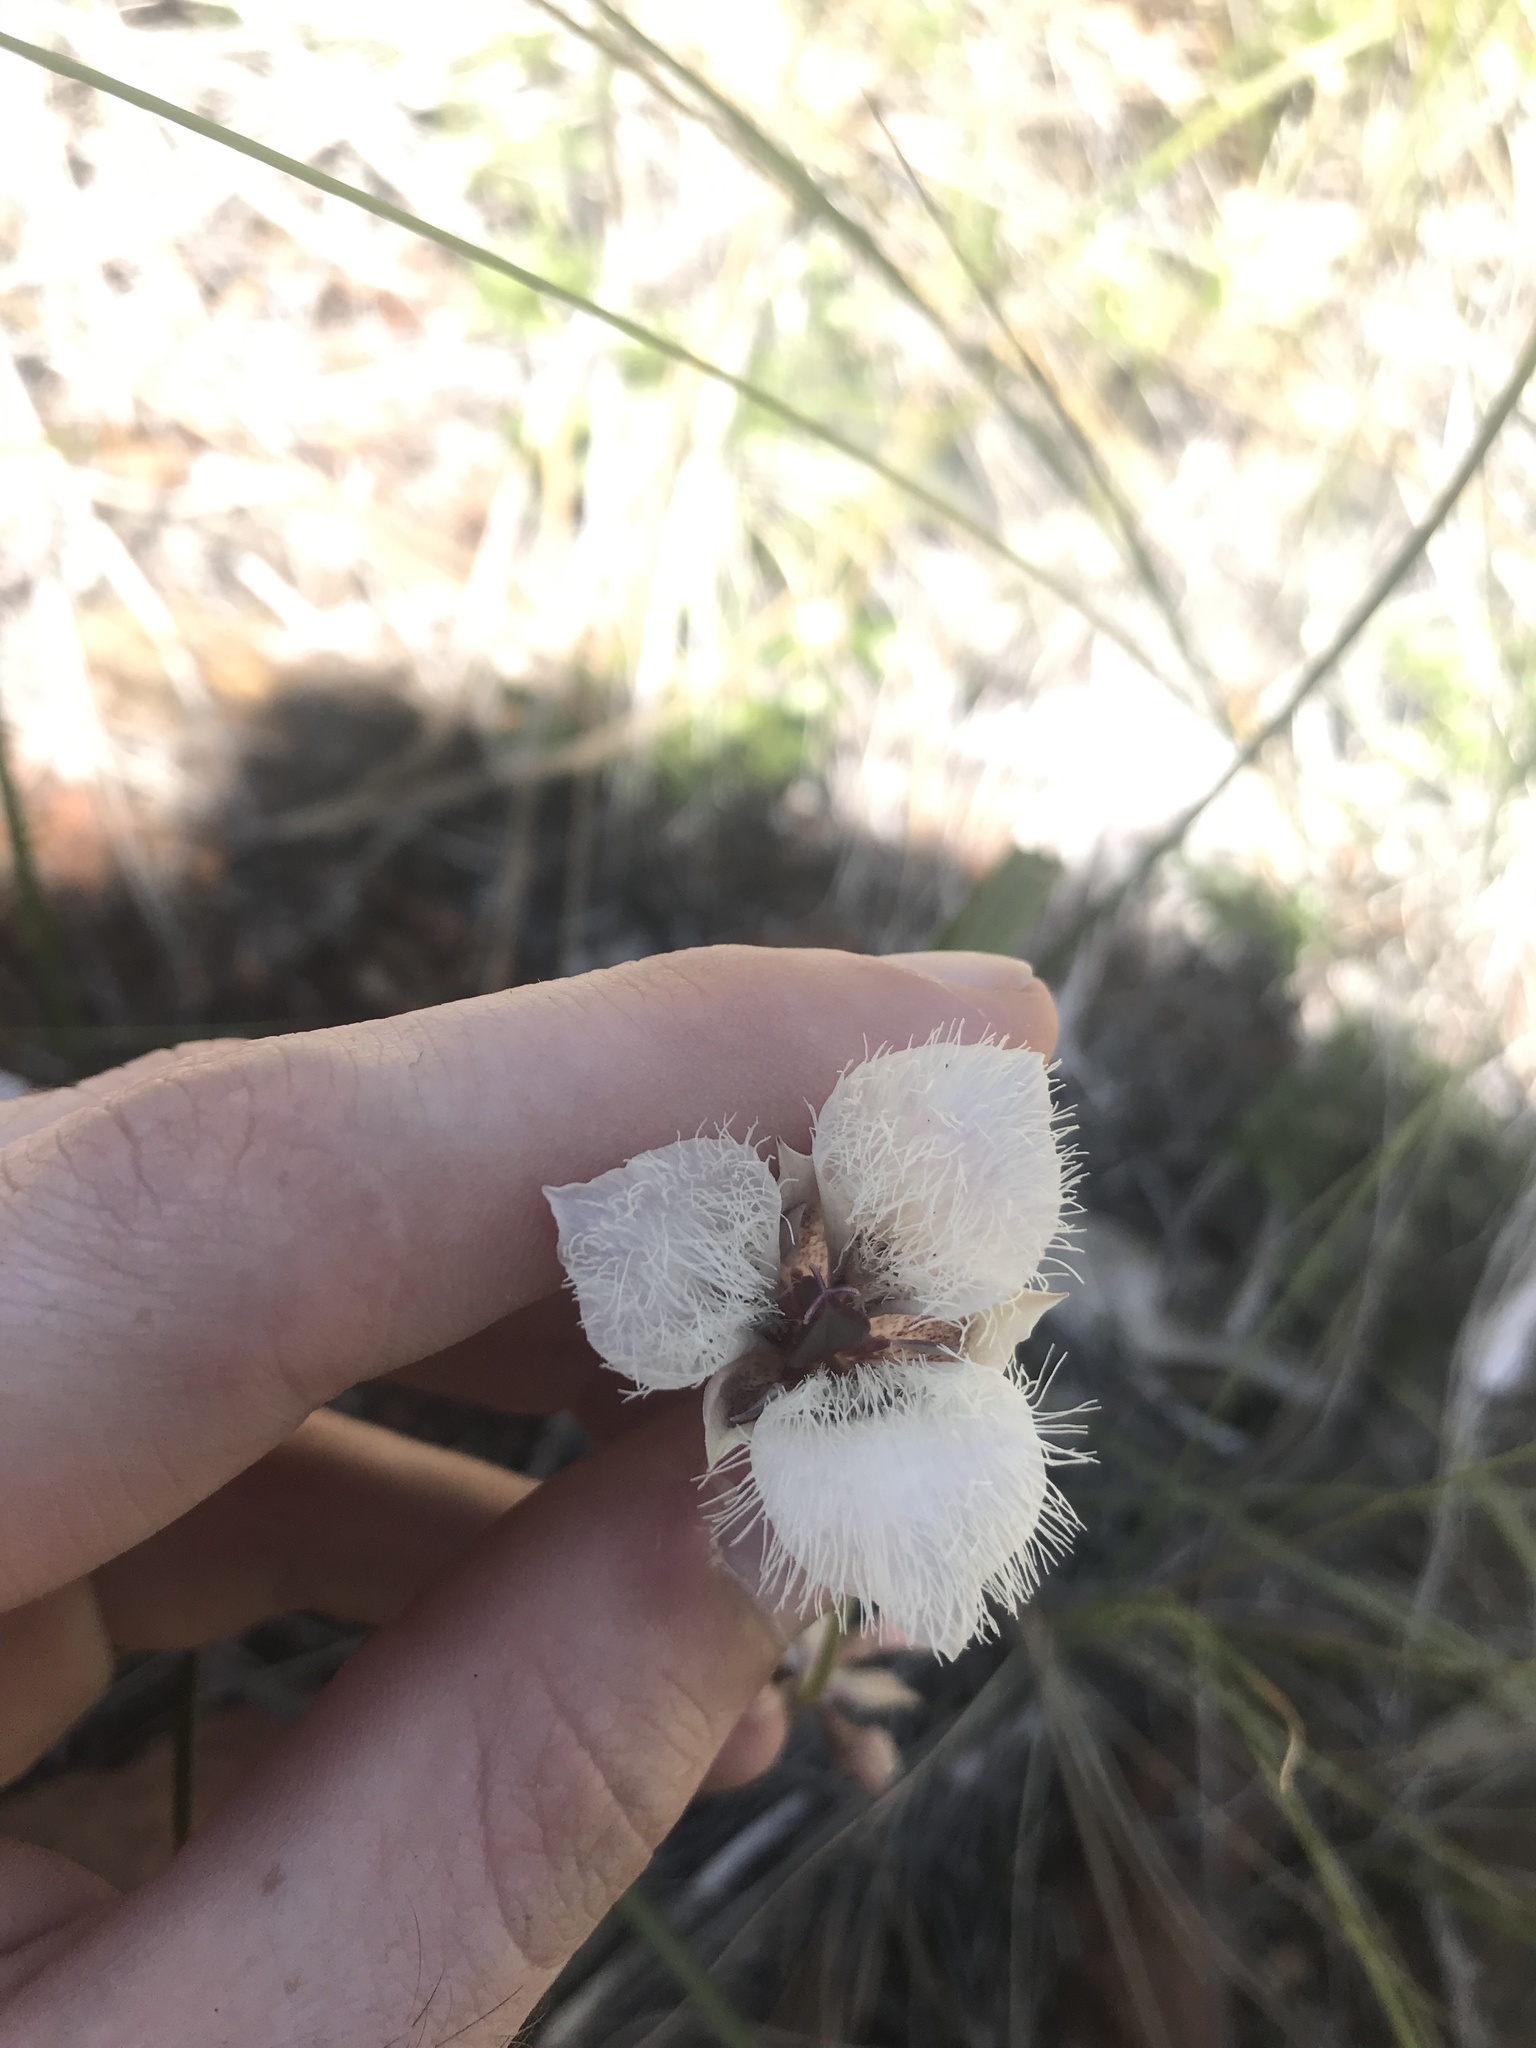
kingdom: Plantae
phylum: Tracheophyta
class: Liliopsida
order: Liliales
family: Liliaceae
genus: Calochortus
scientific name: Calochortus tolmiei
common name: Pussy-ears
